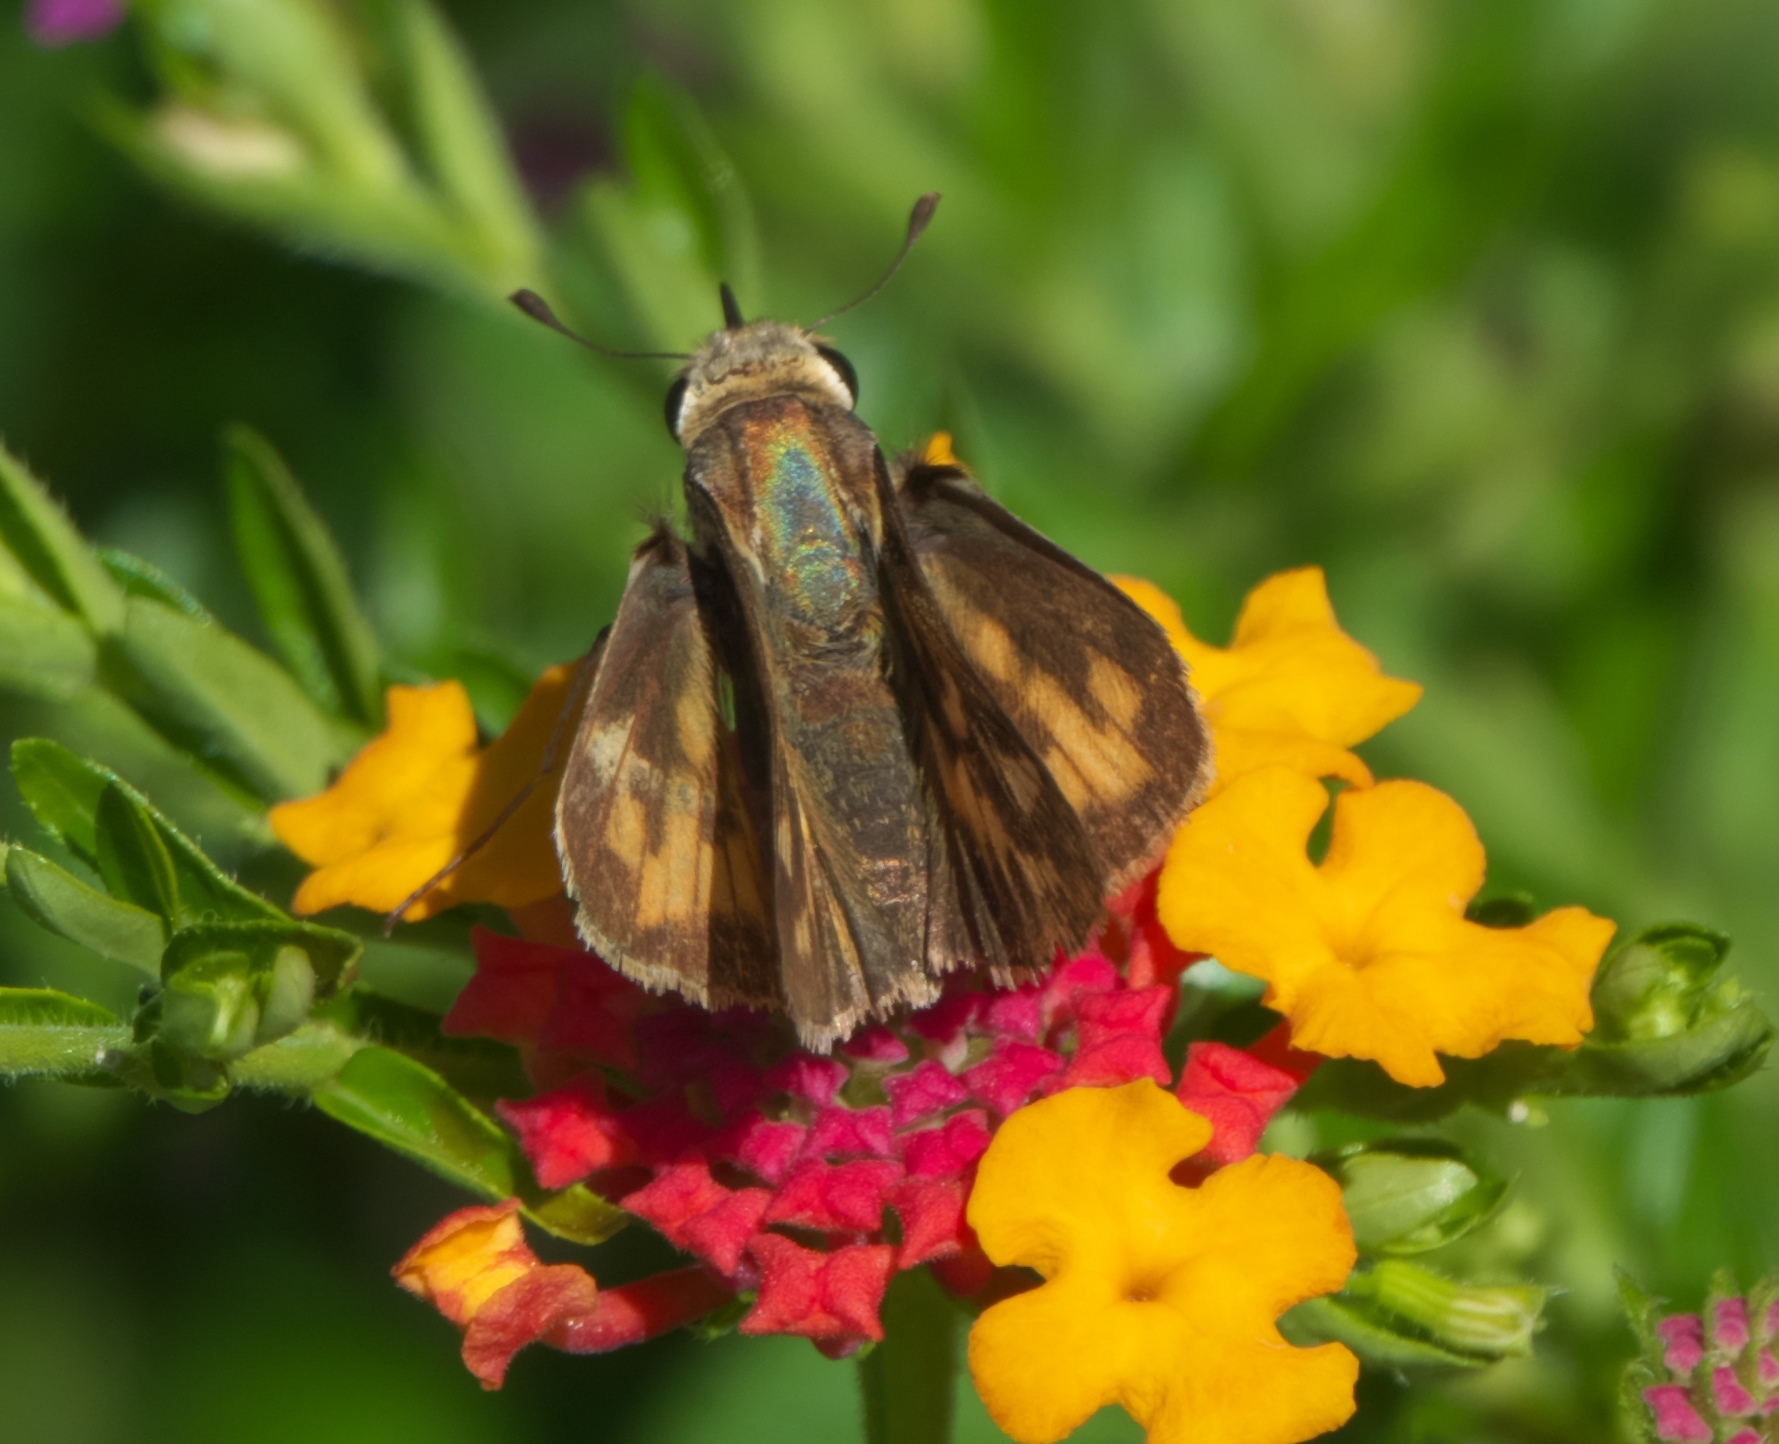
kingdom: Animalia
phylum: Arthropoda
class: Insecta
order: Lepidoptera
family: Hesperiidae
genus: Hylephila
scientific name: Hylephila phyleus
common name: Fiery skipper
